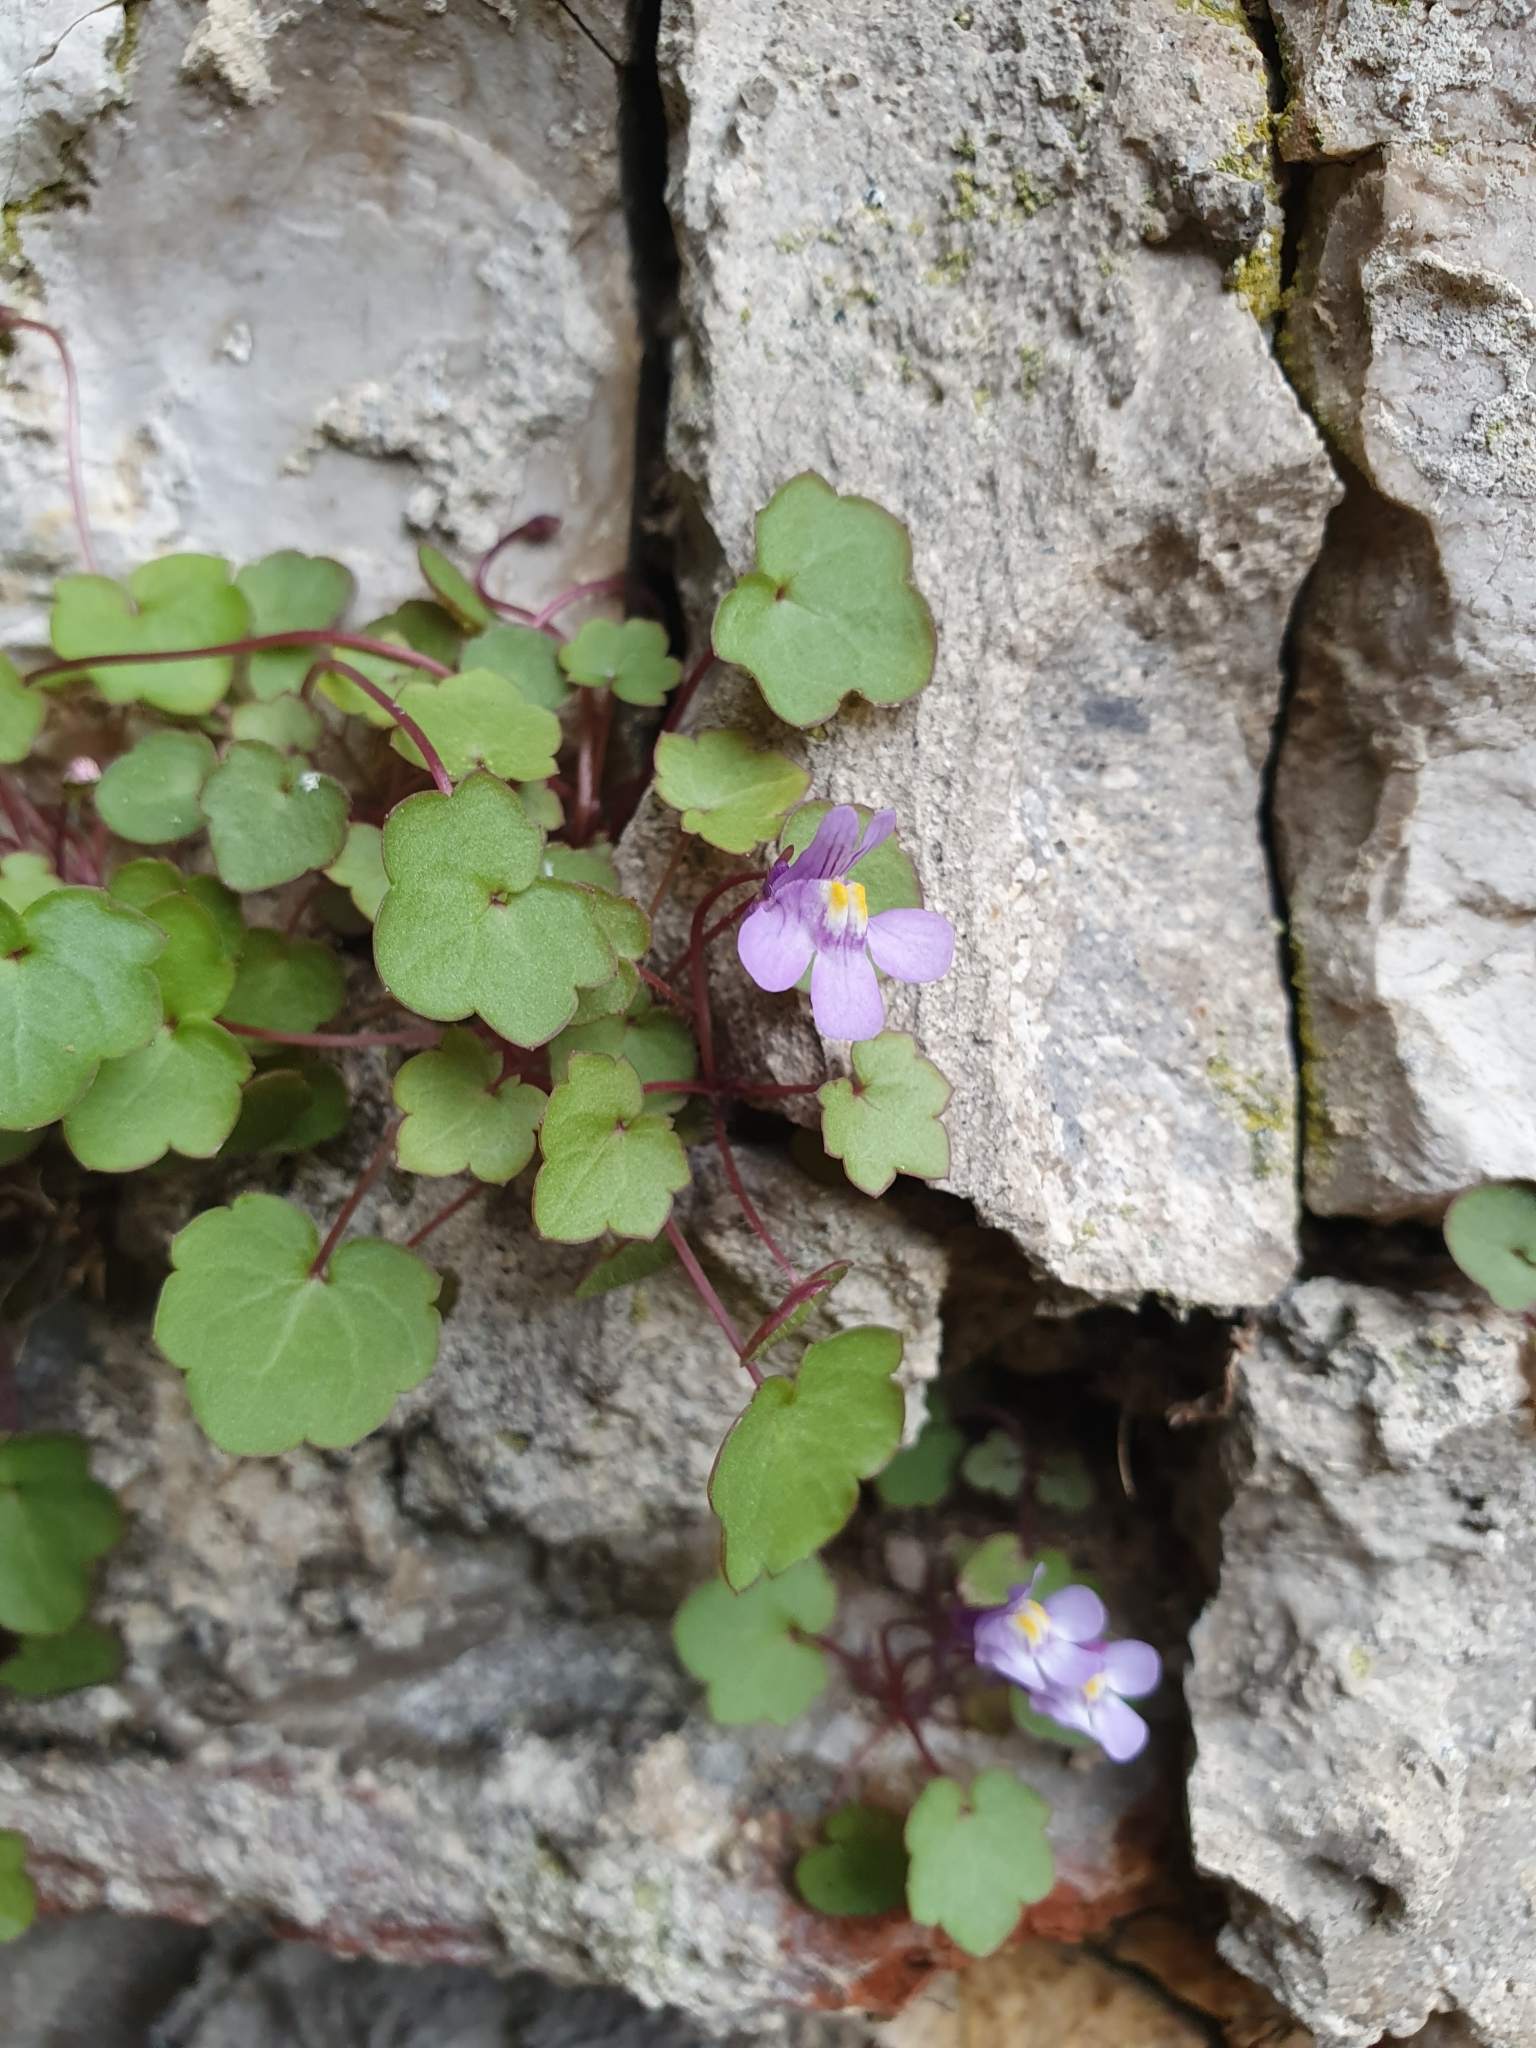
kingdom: Plantae
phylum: Tracheophyta
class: Magnoliopsida
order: Lamiales
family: Plantaginaceae
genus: Cymbalaria
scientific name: Cymbalaria muralis
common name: Ivy-leaved toadflax
